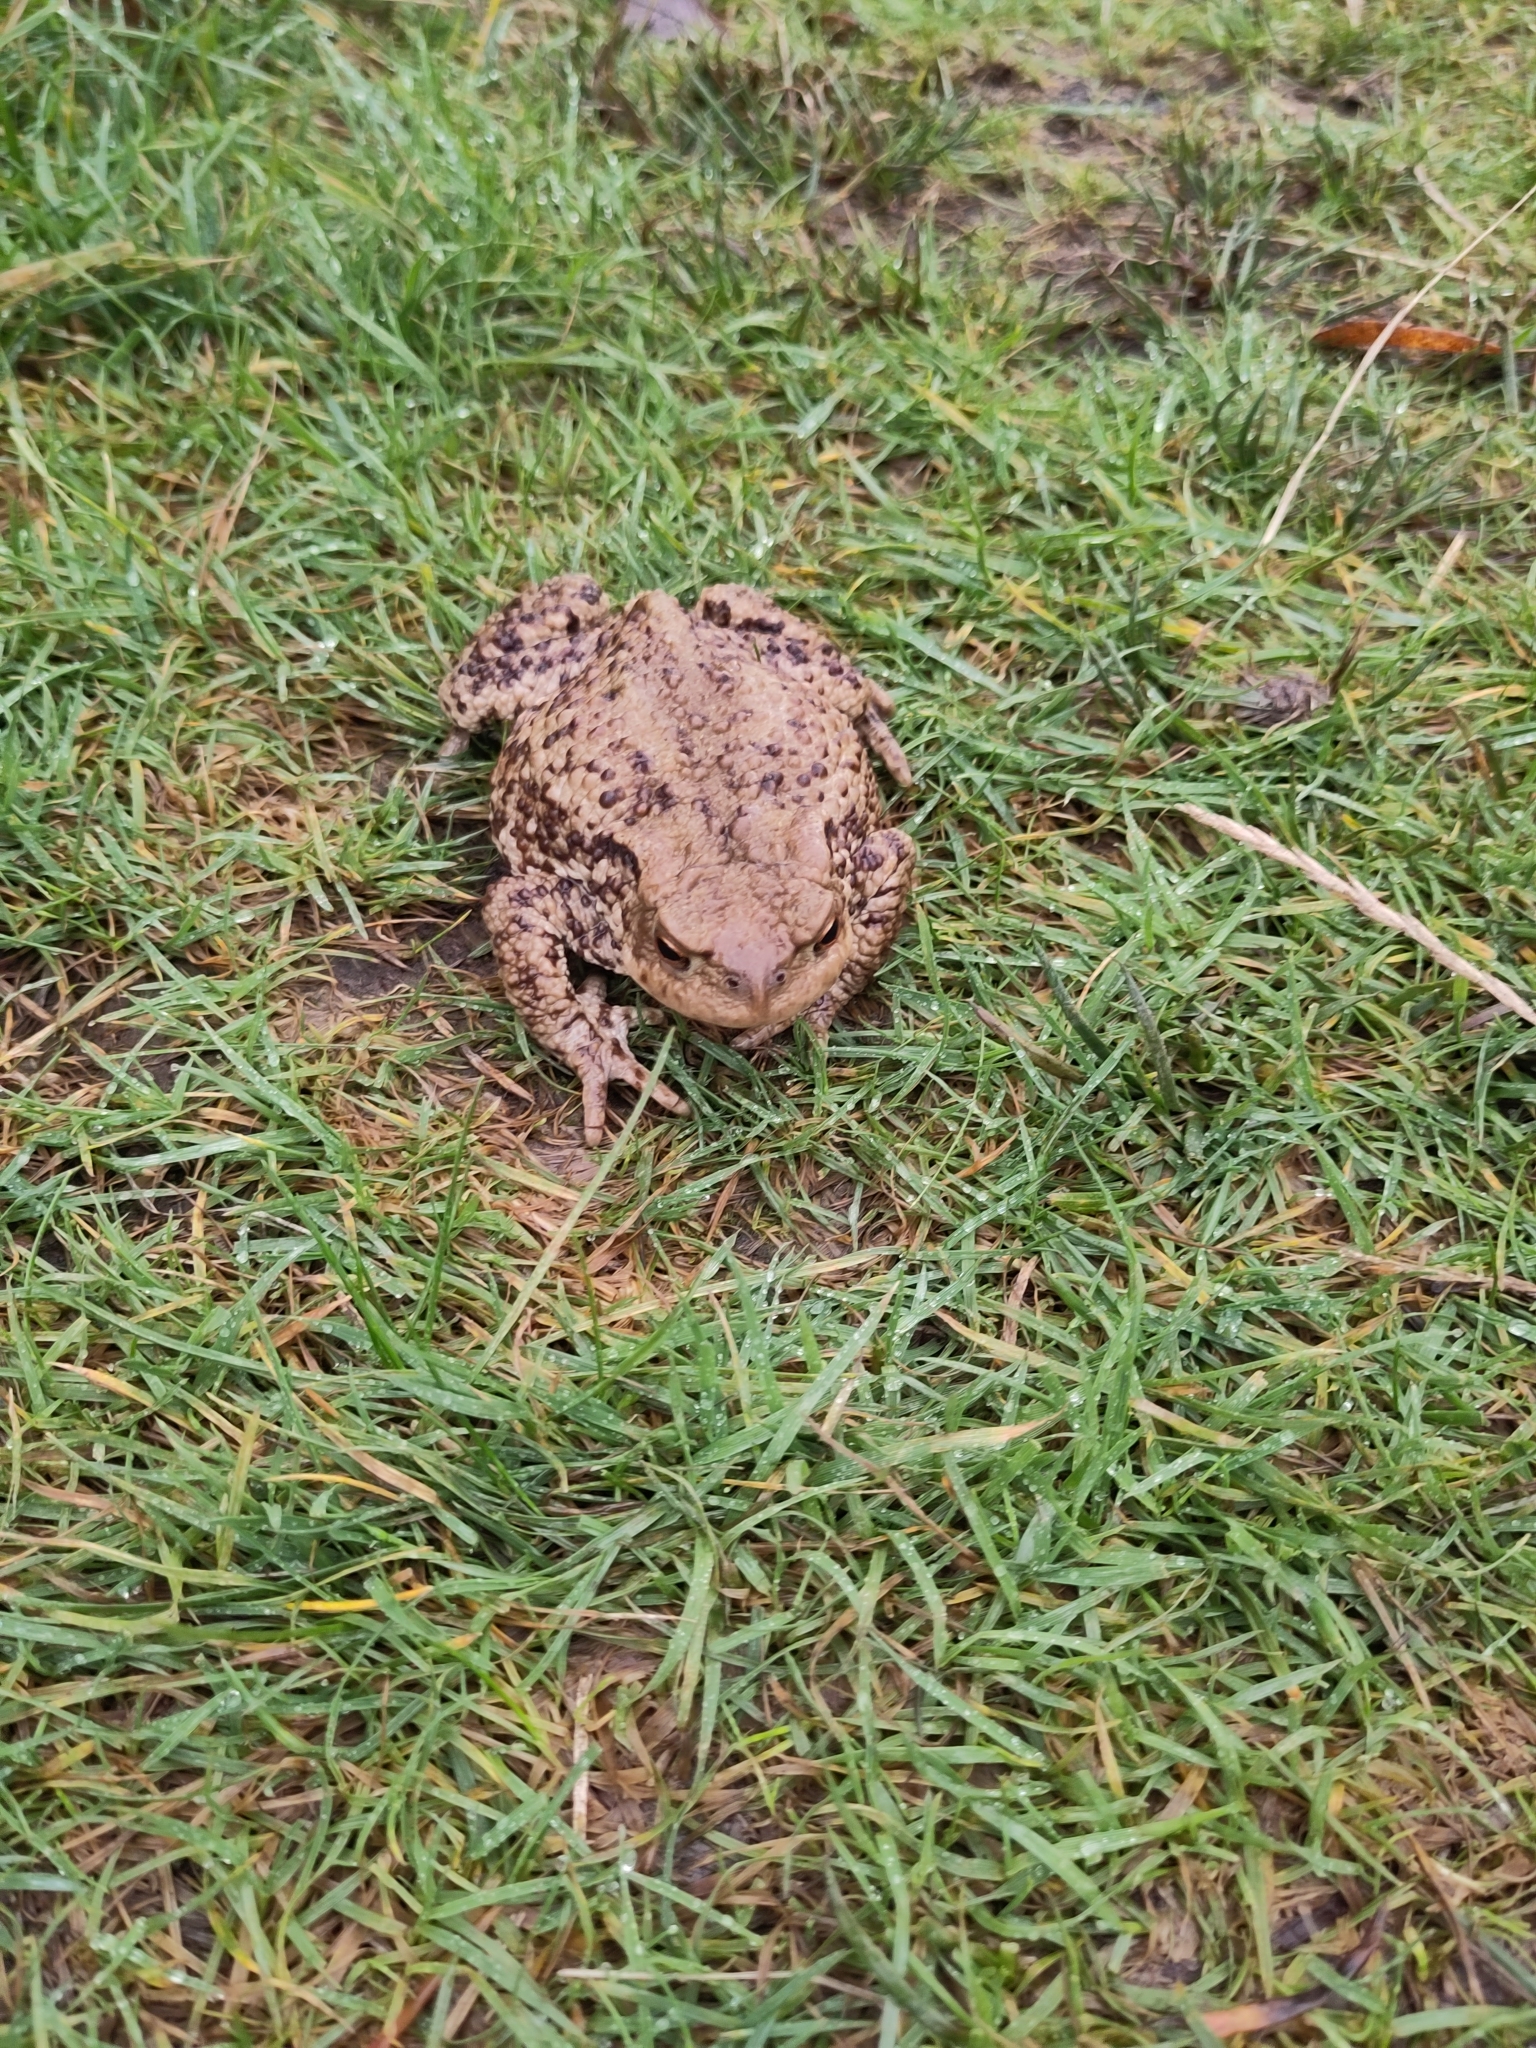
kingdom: Animalia
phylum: Chordata
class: Amphibia
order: Anura
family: Bufonidae
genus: Bufo
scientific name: Bufo bufo
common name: Common toad
